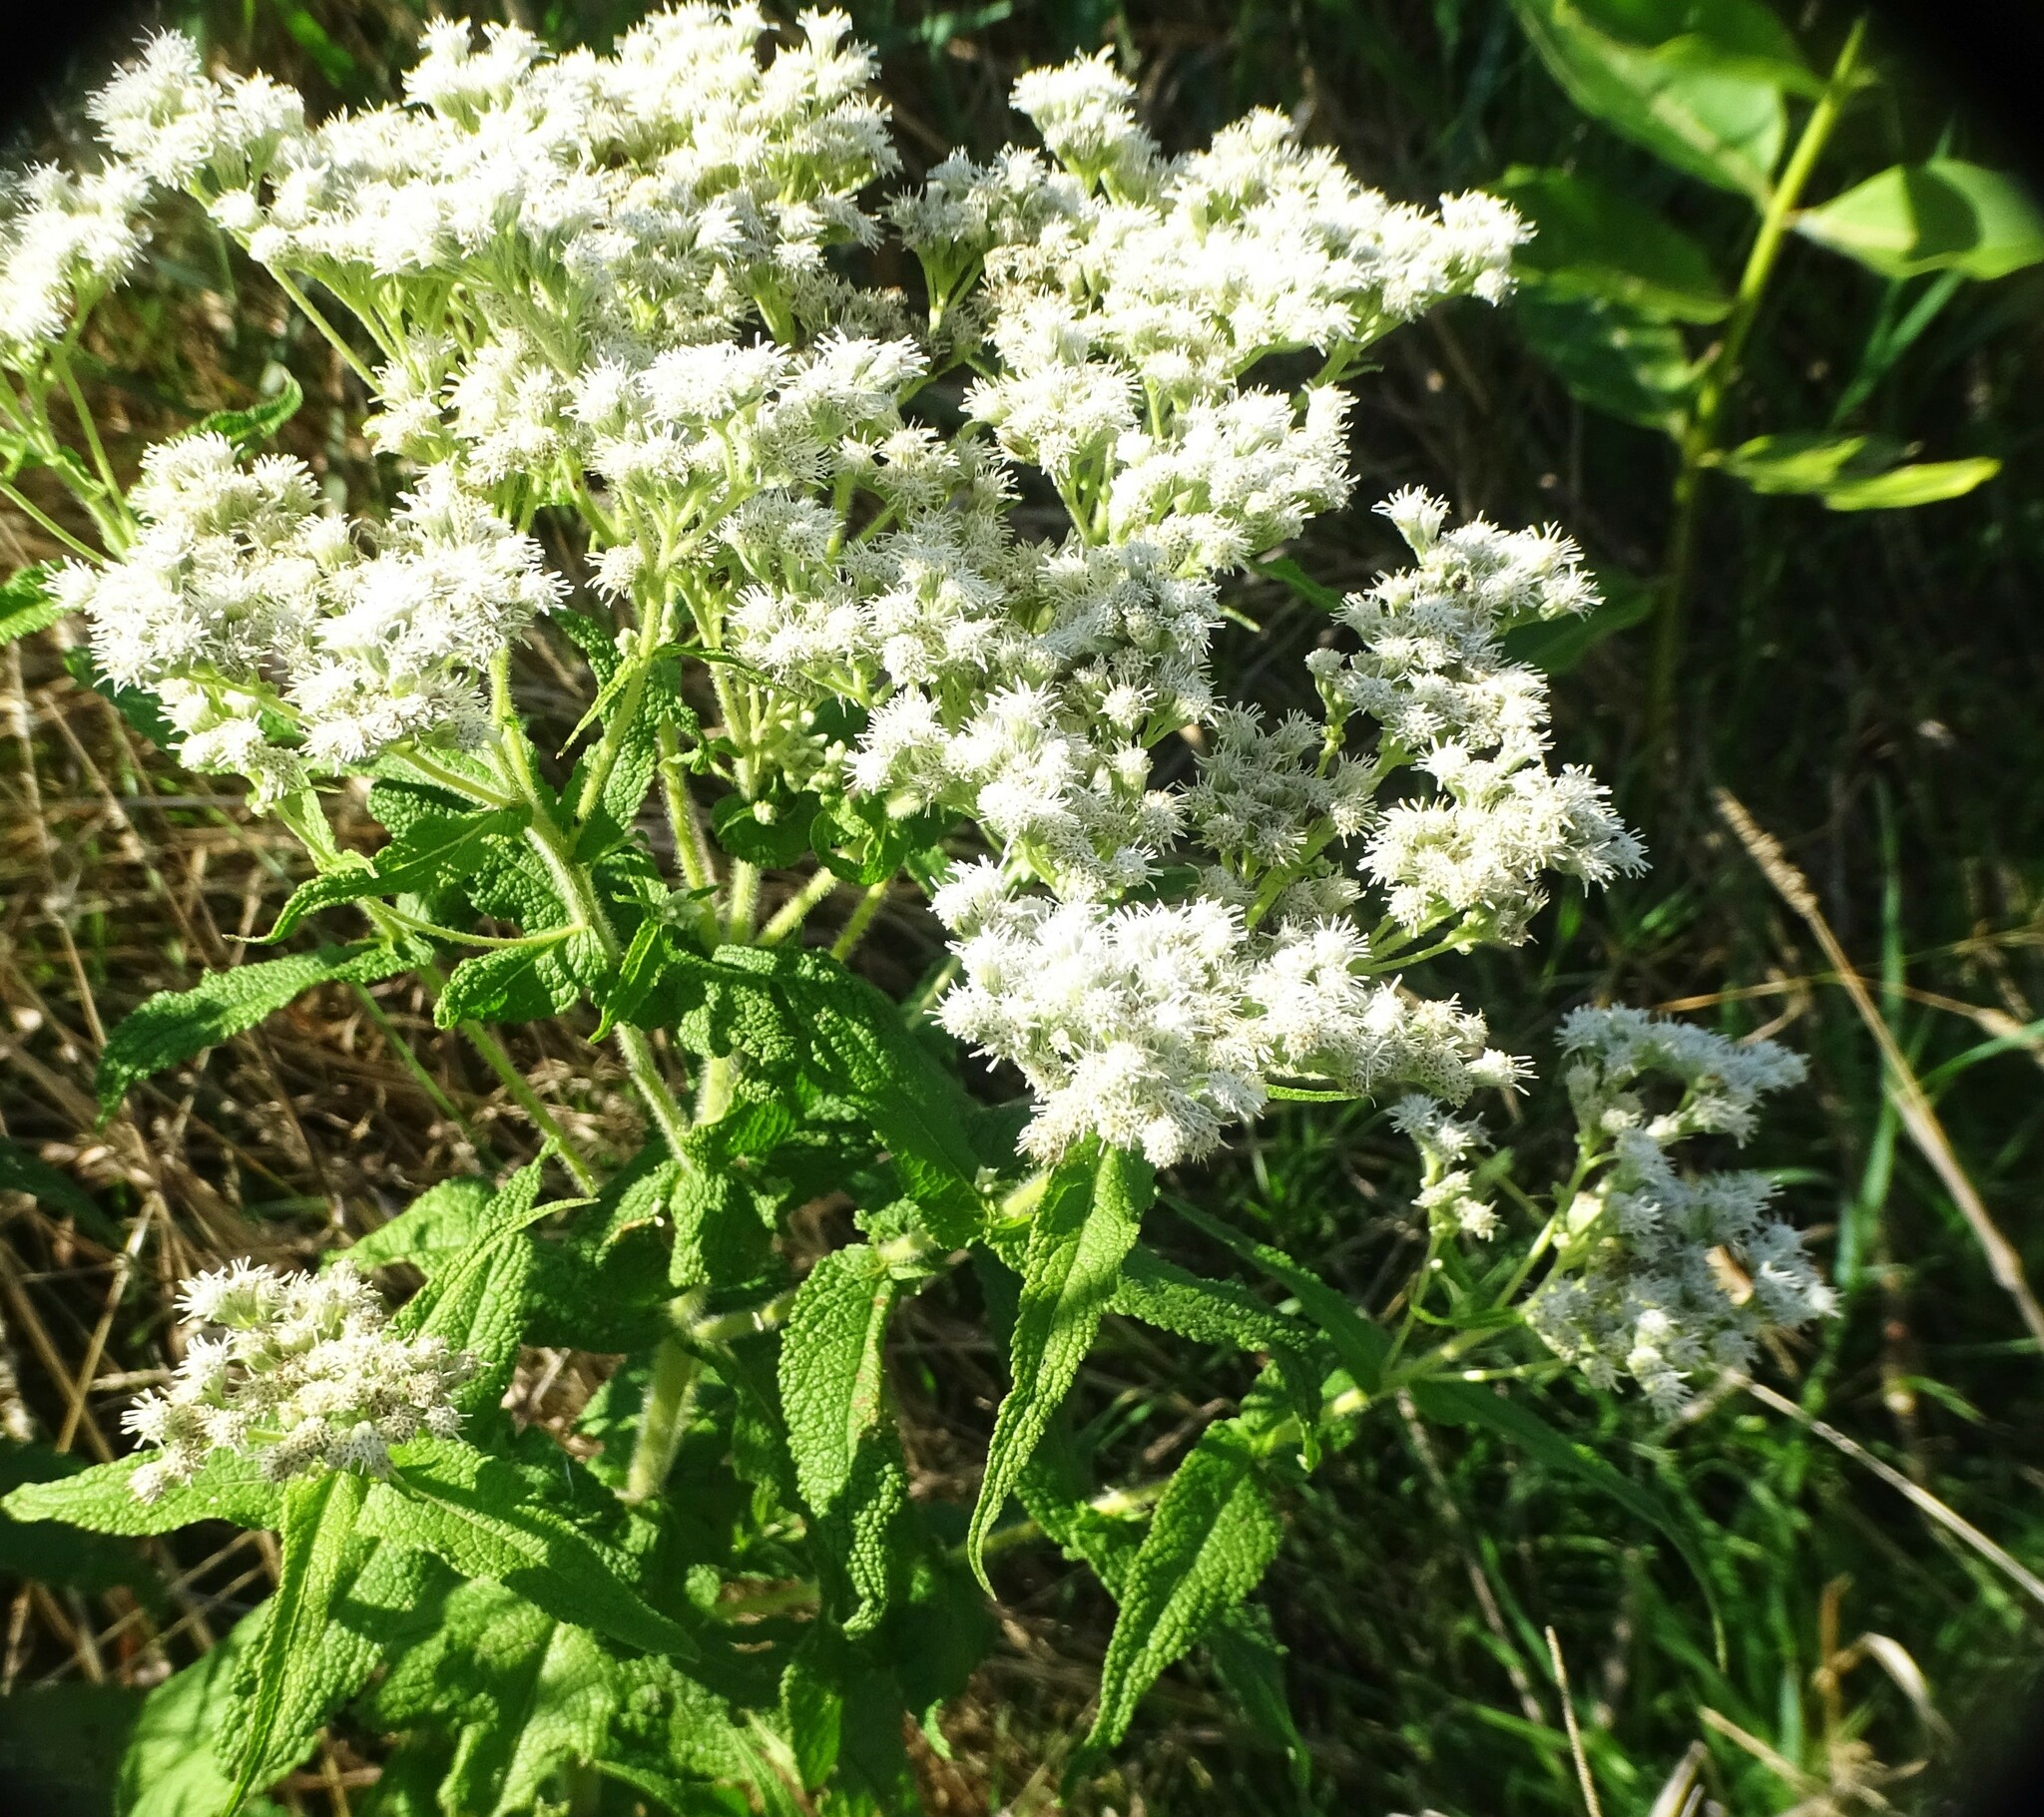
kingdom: Plantae
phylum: Tracheophyta
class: Magnoliopsida
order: Asterales
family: Asteraceae
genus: Eupatorium
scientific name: Eupatorium perfoliatum
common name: Boneset
